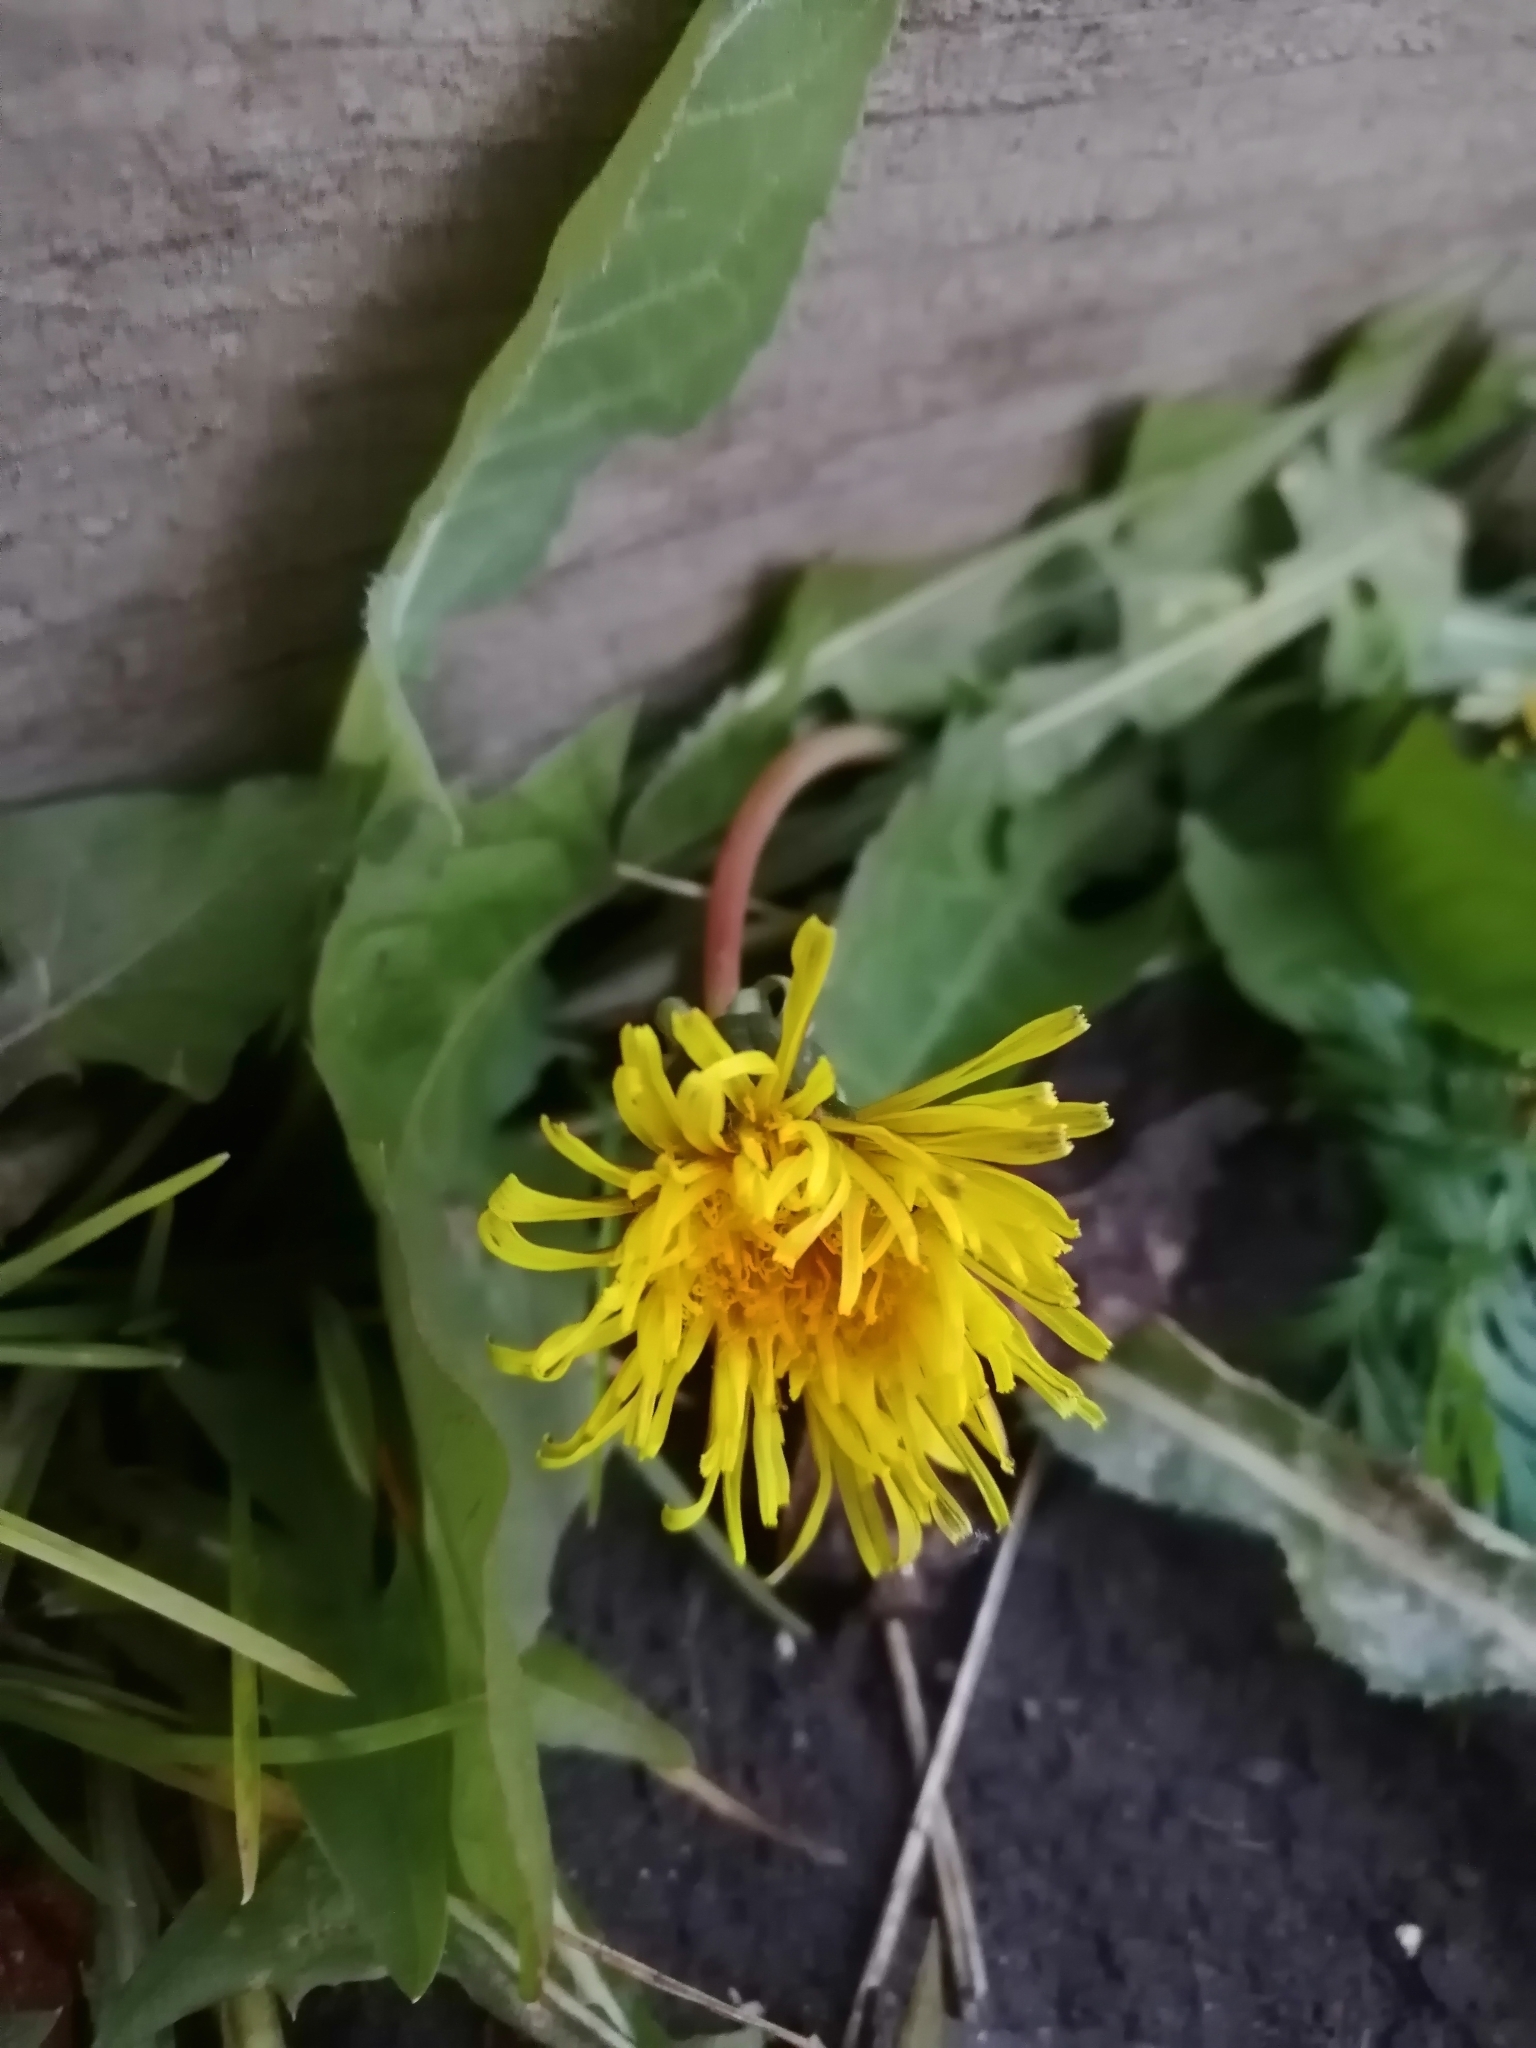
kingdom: Plantae
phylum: Tracheophyta
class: Magnoliopsida
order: Asterales
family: Asteraceae
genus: Taraxacum
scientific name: Taraxacum officinale
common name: Common dandelion
